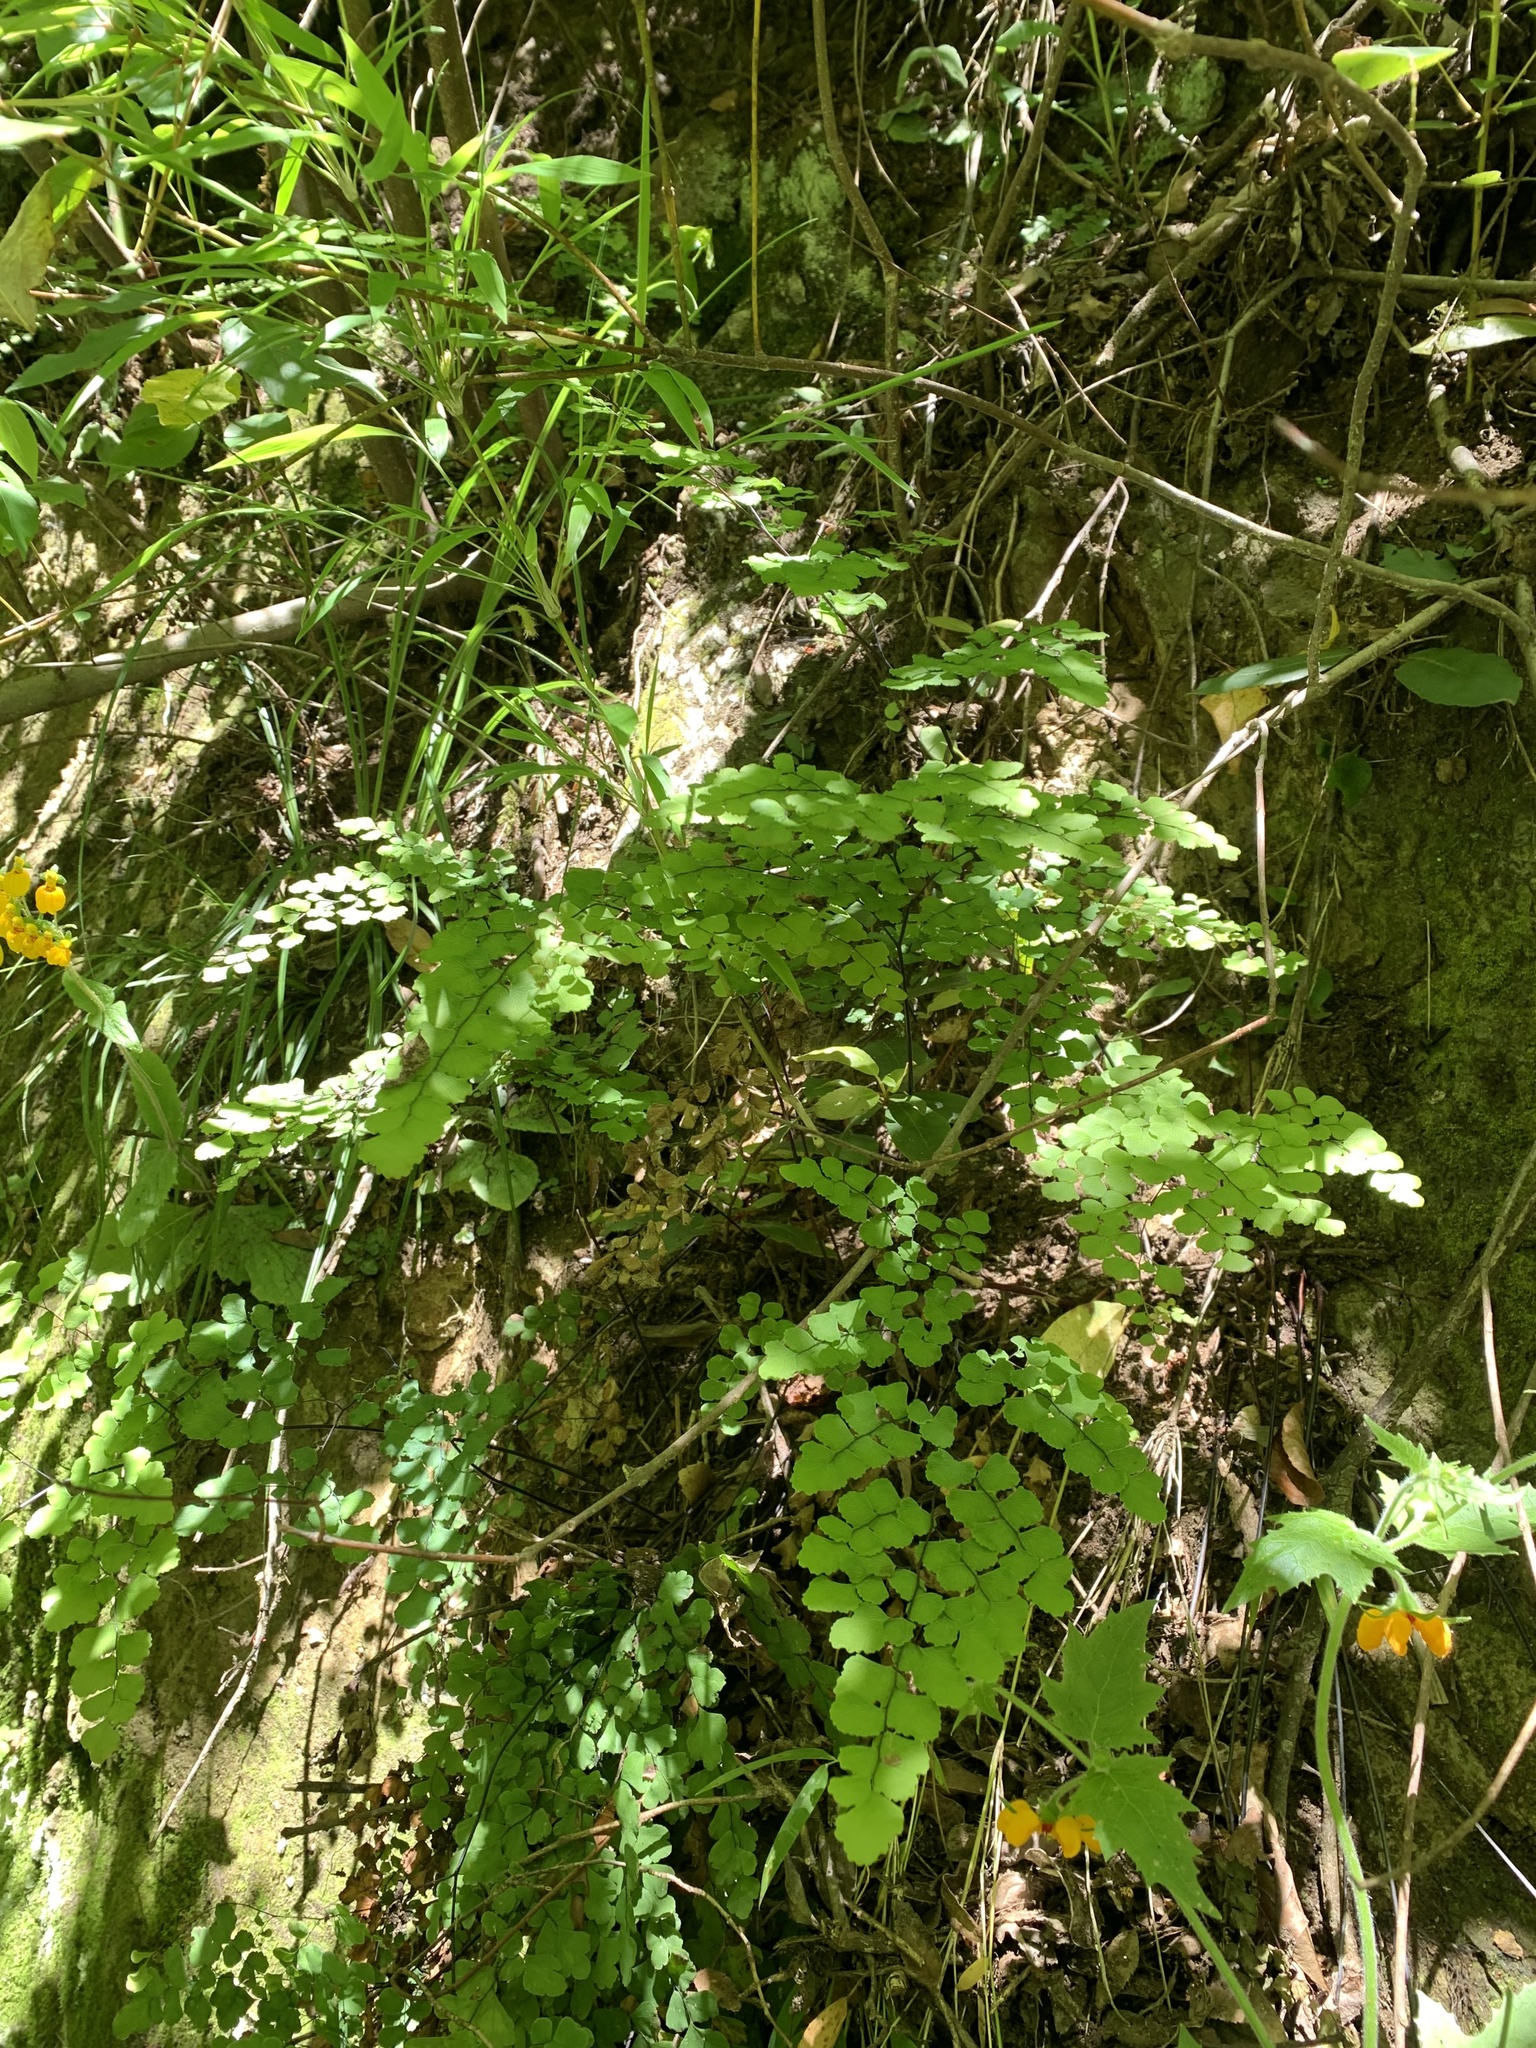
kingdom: Plantae
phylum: Tracheophyta
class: Polypodiopsida
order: Polypodiales
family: Pteridaceae
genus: Adiantum
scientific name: Adiantum chilense
